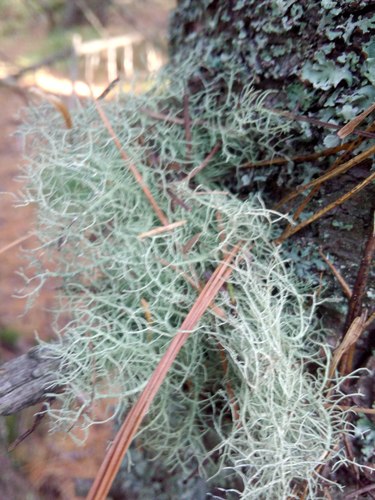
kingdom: Fungi
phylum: Ascomycota
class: Lecanoromycetes
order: Lecanorales
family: Parmeliaceae
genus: Usnea
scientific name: Usnea
